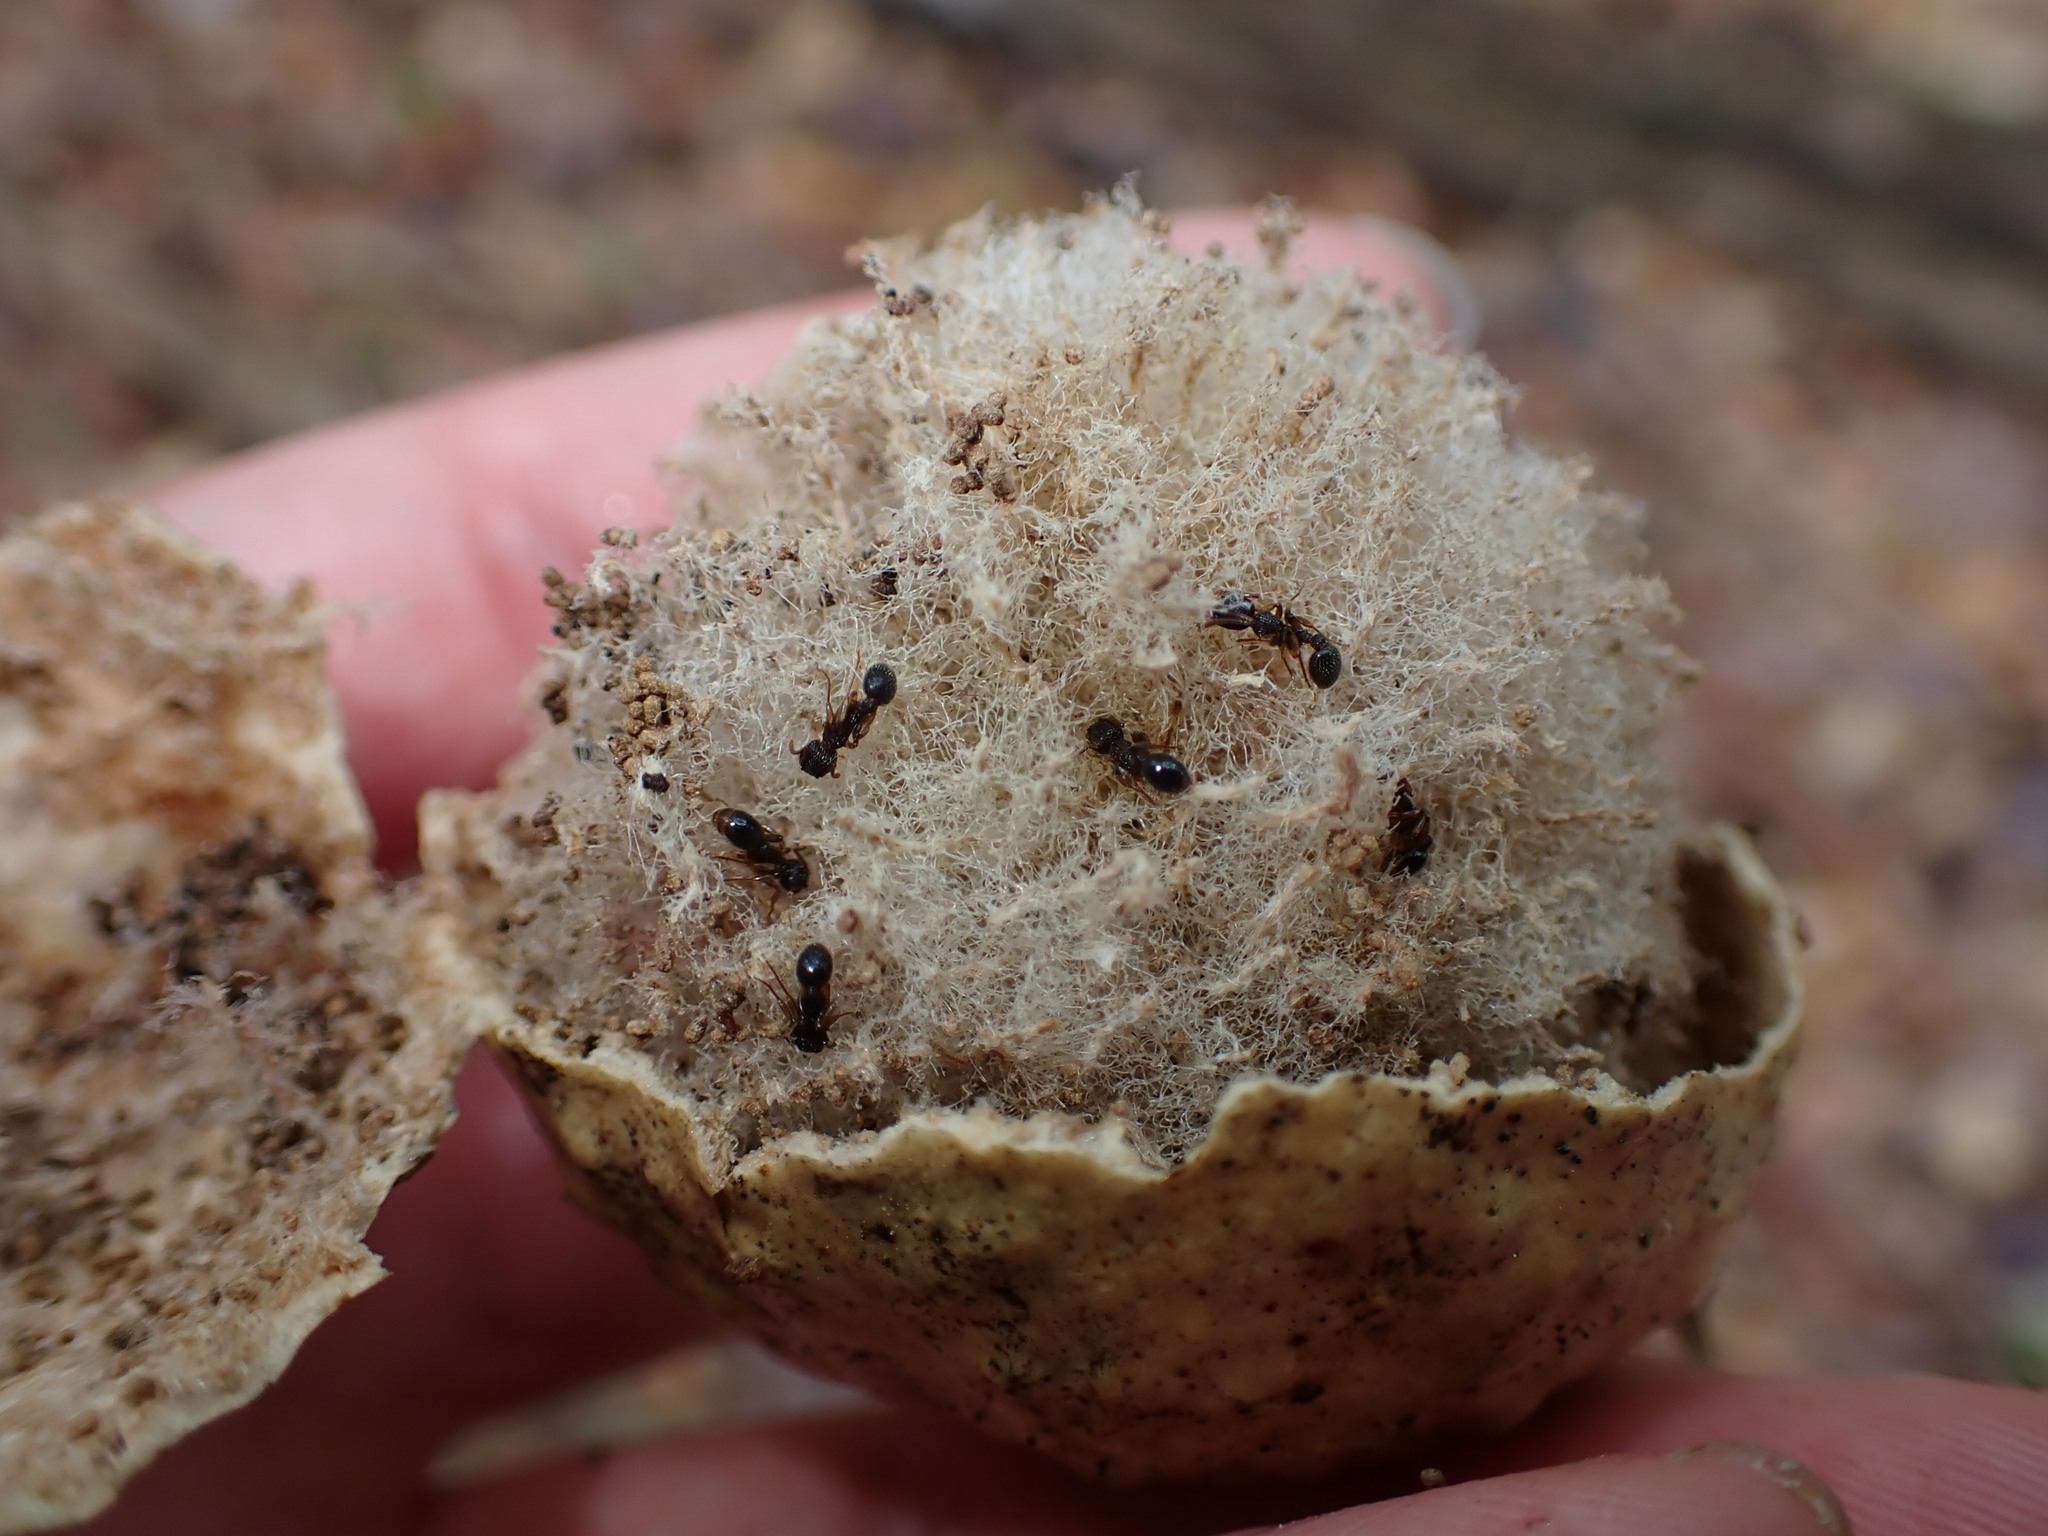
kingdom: Animalia
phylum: Arthropoda
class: Insecta
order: Hymenoptera
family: Cynipidae
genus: Amphibolips
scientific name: Amphibolips
